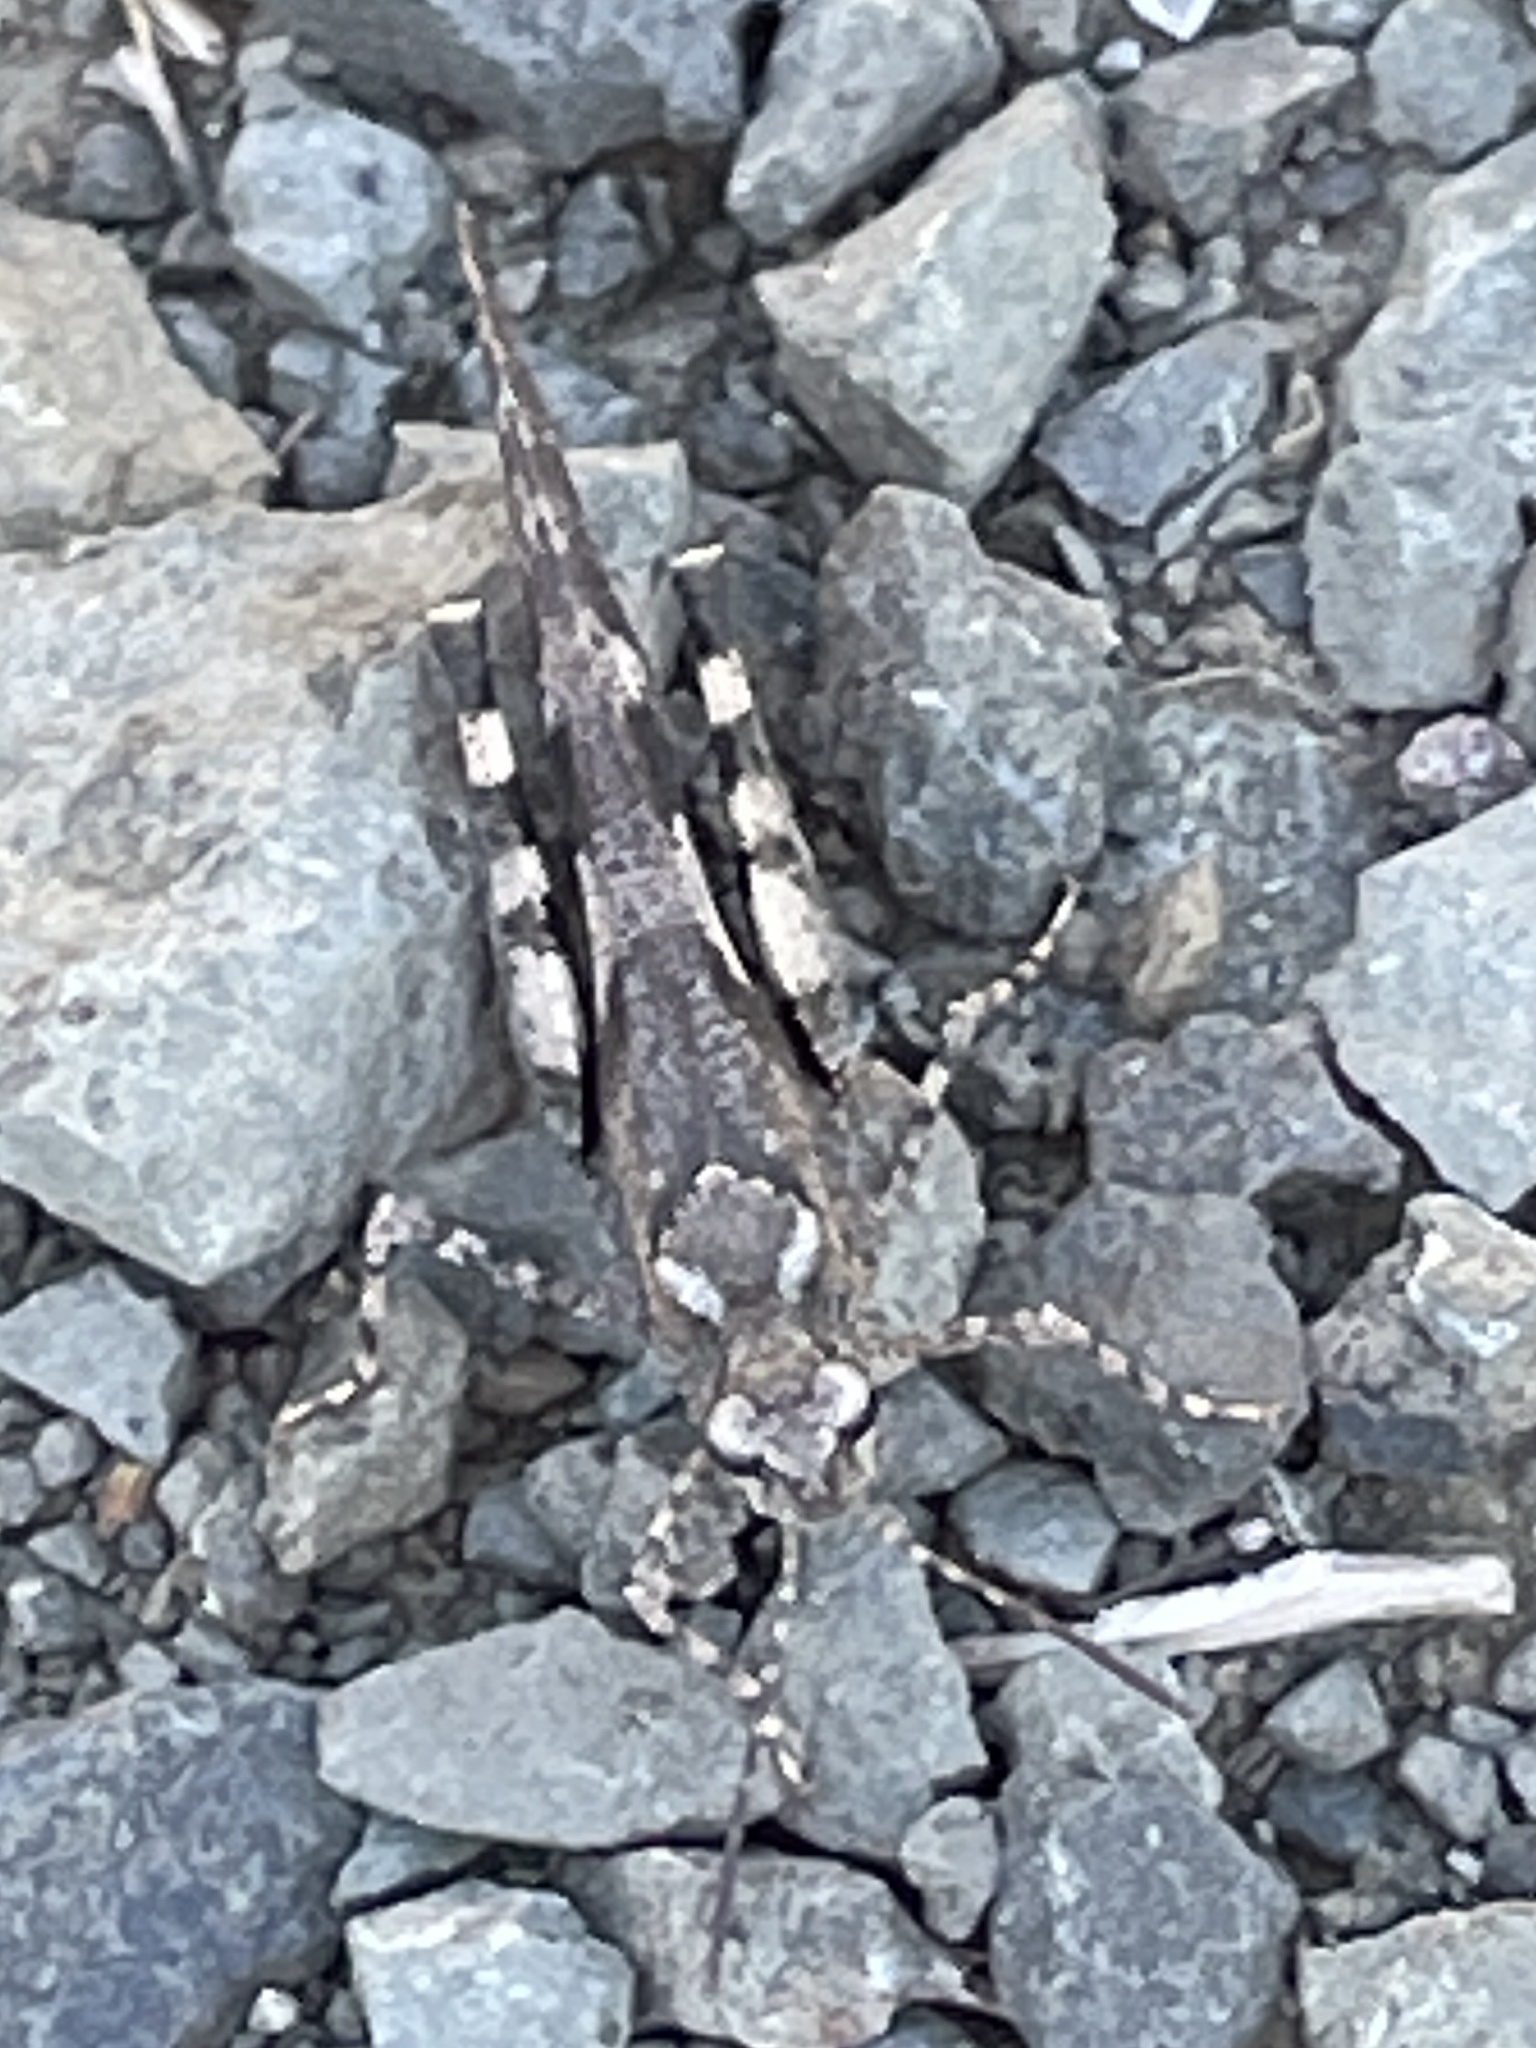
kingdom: Animalia
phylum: Arthropoda
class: Insecta
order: Orthoptera
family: Acrididae
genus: Trimerotropis
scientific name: Trimerotropis fontana
